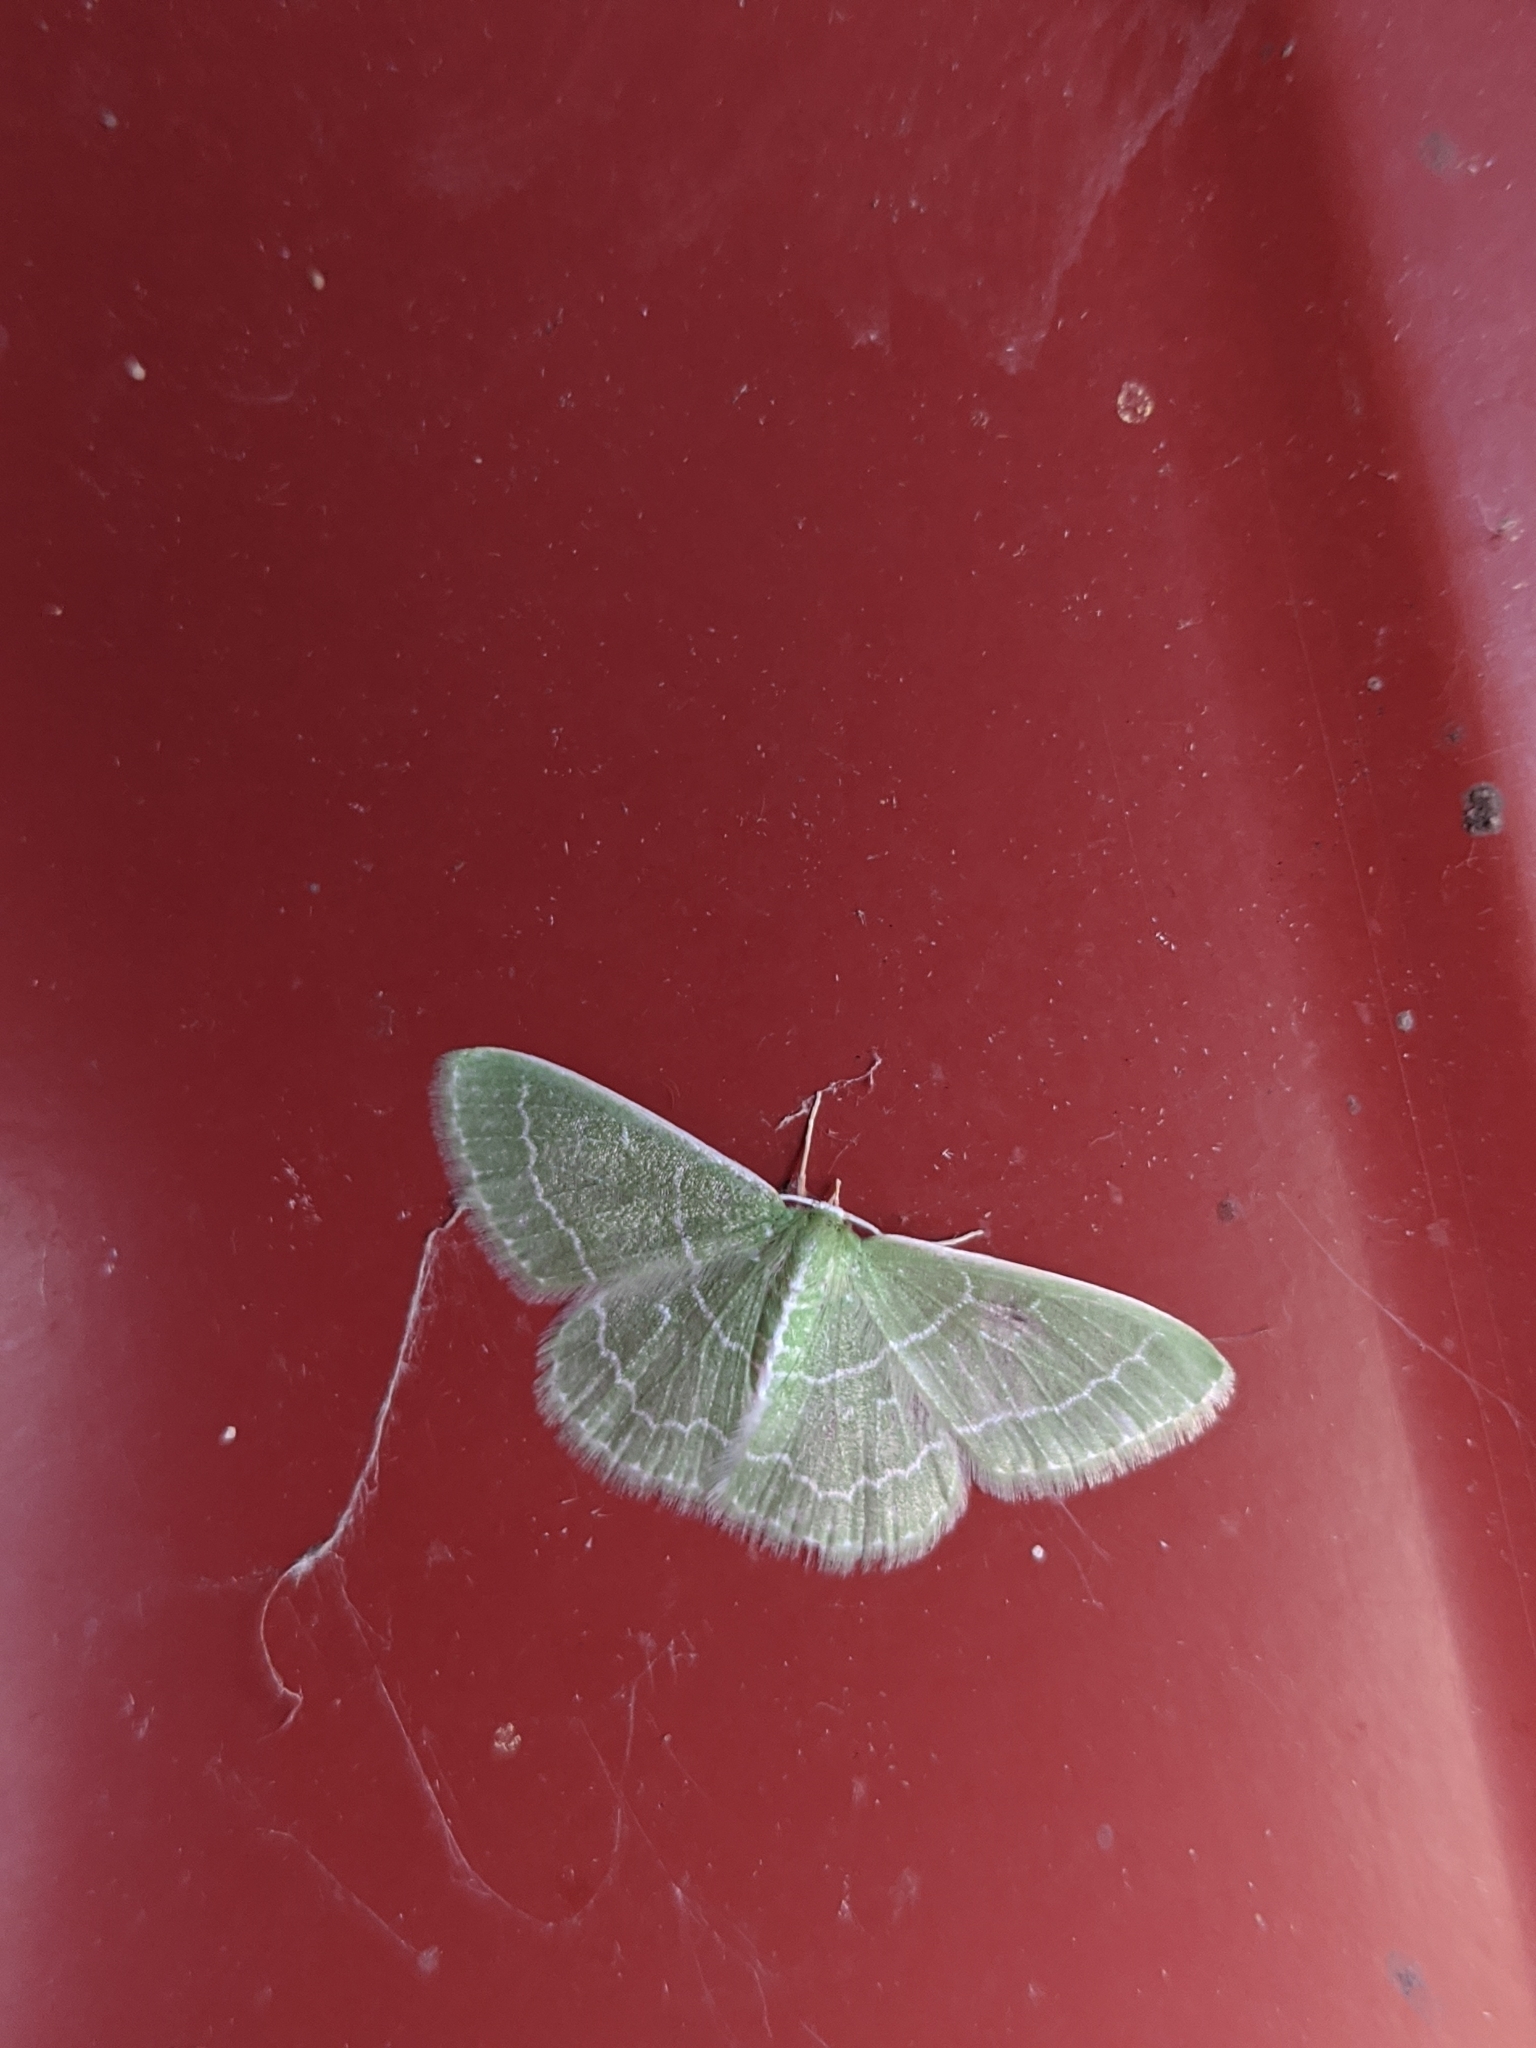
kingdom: Animalia
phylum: Arthropoda
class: Insecta
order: Lepidoptera
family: Geometridae
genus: Synchlora
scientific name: Synchlora aerata
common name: Wavy-lined emerald
